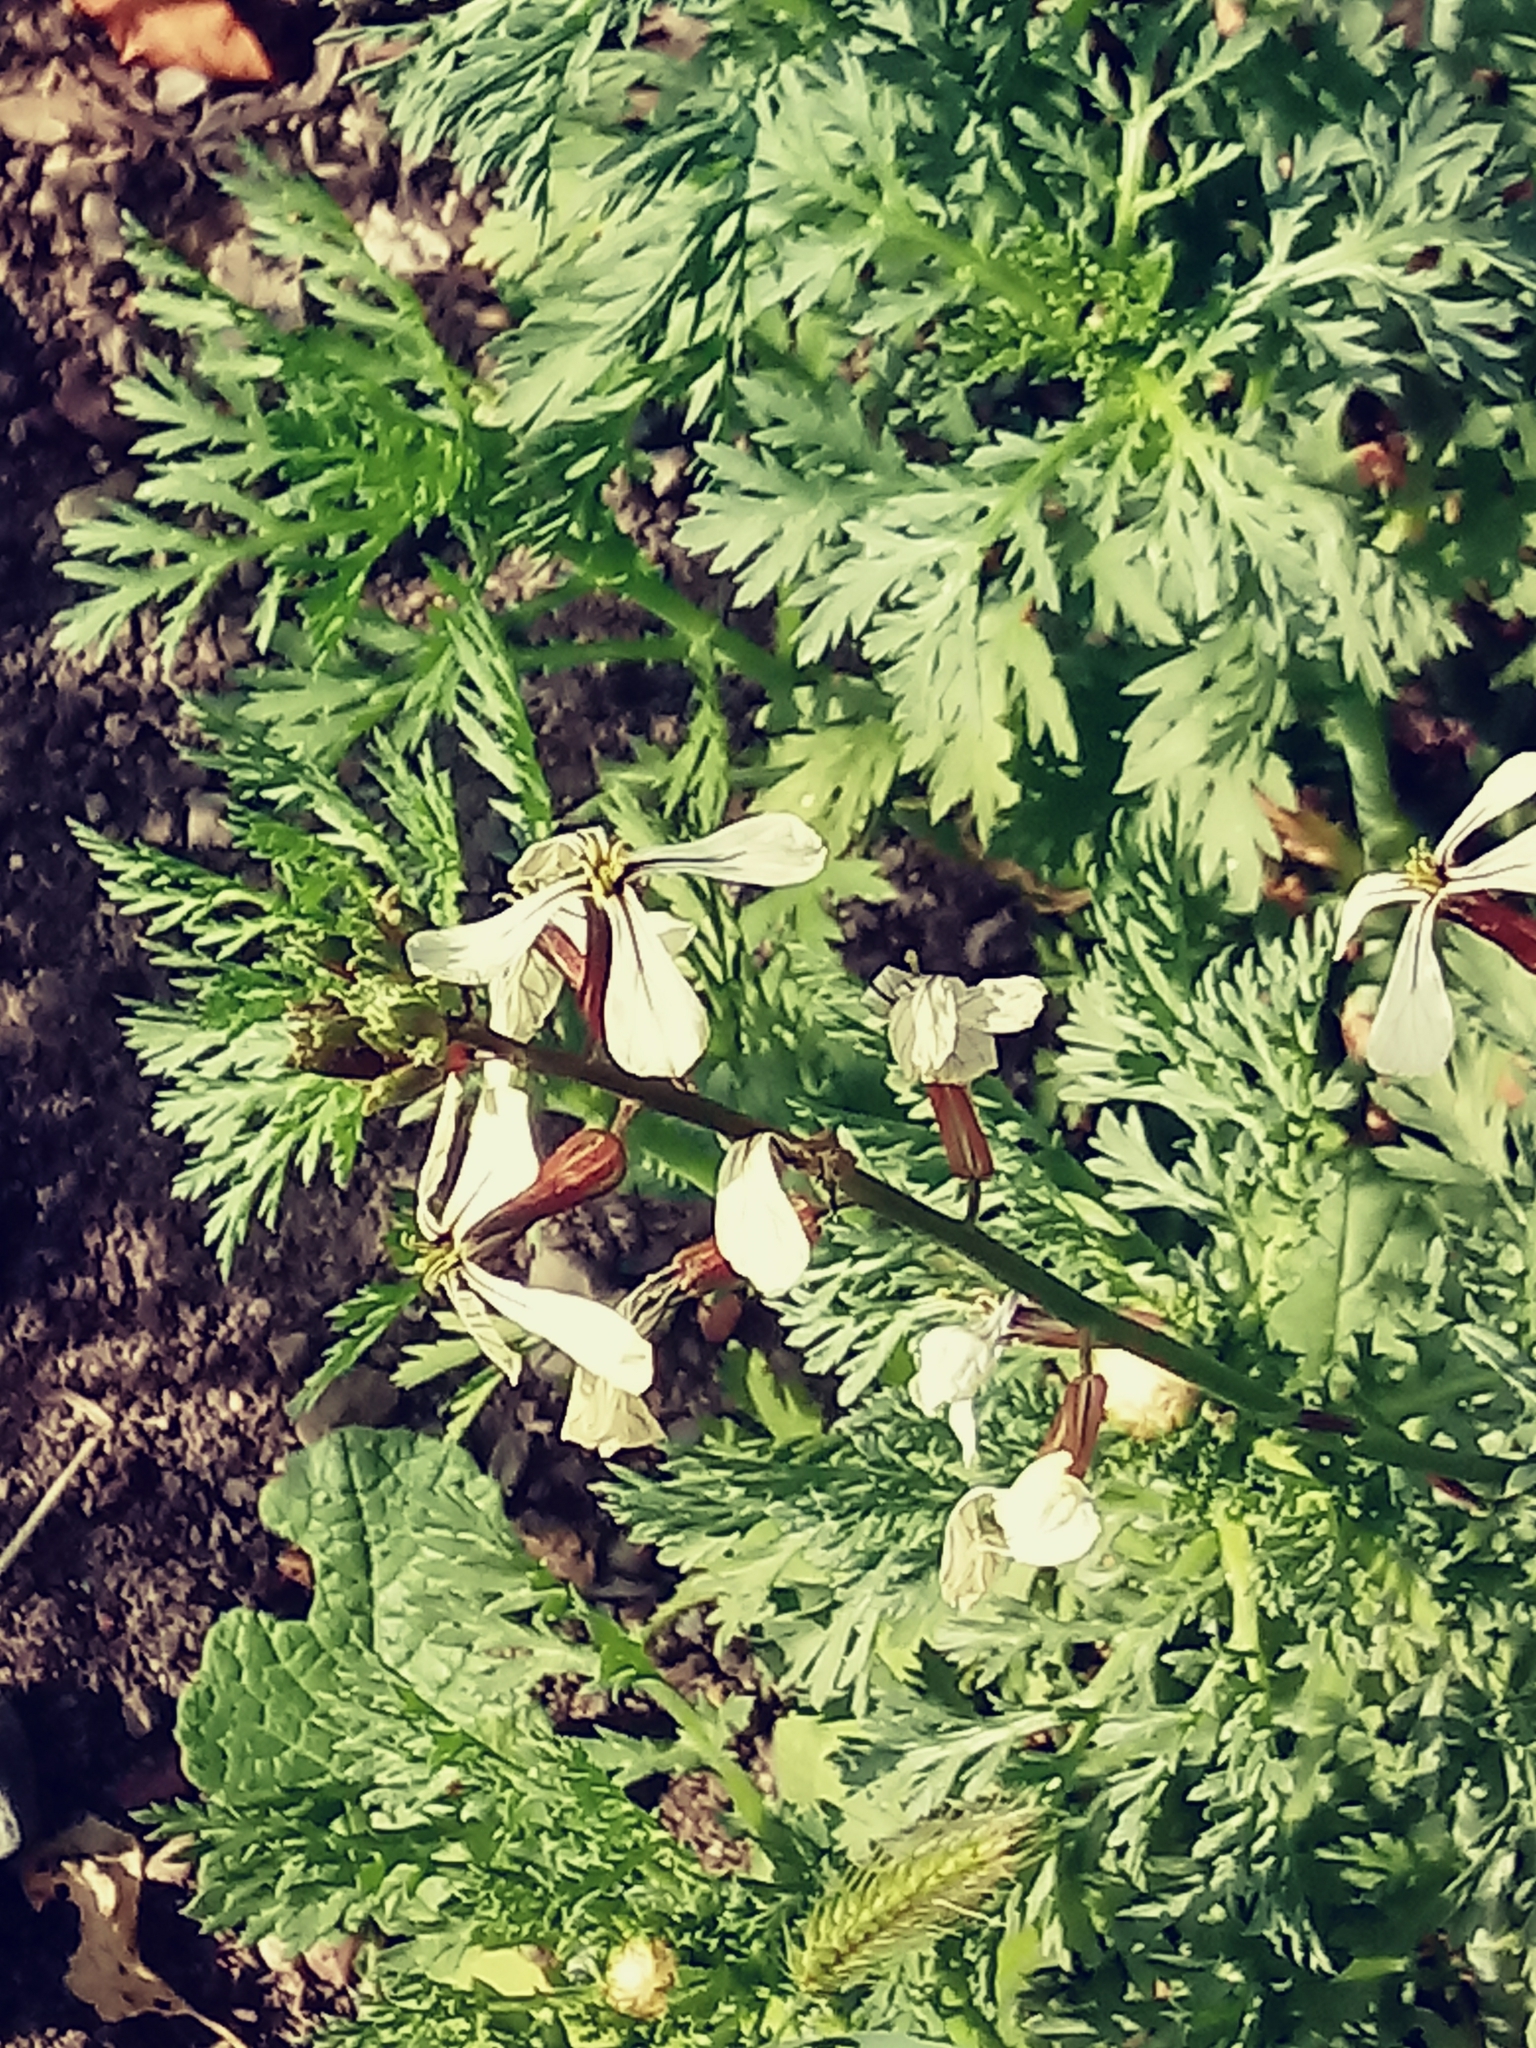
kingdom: Plantae
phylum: Tracheophyta
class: Magnoliopsida
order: Brassicales
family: Brassicaceae
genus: Eruca
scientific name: Eruca vesicaria
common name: Garden rocket
